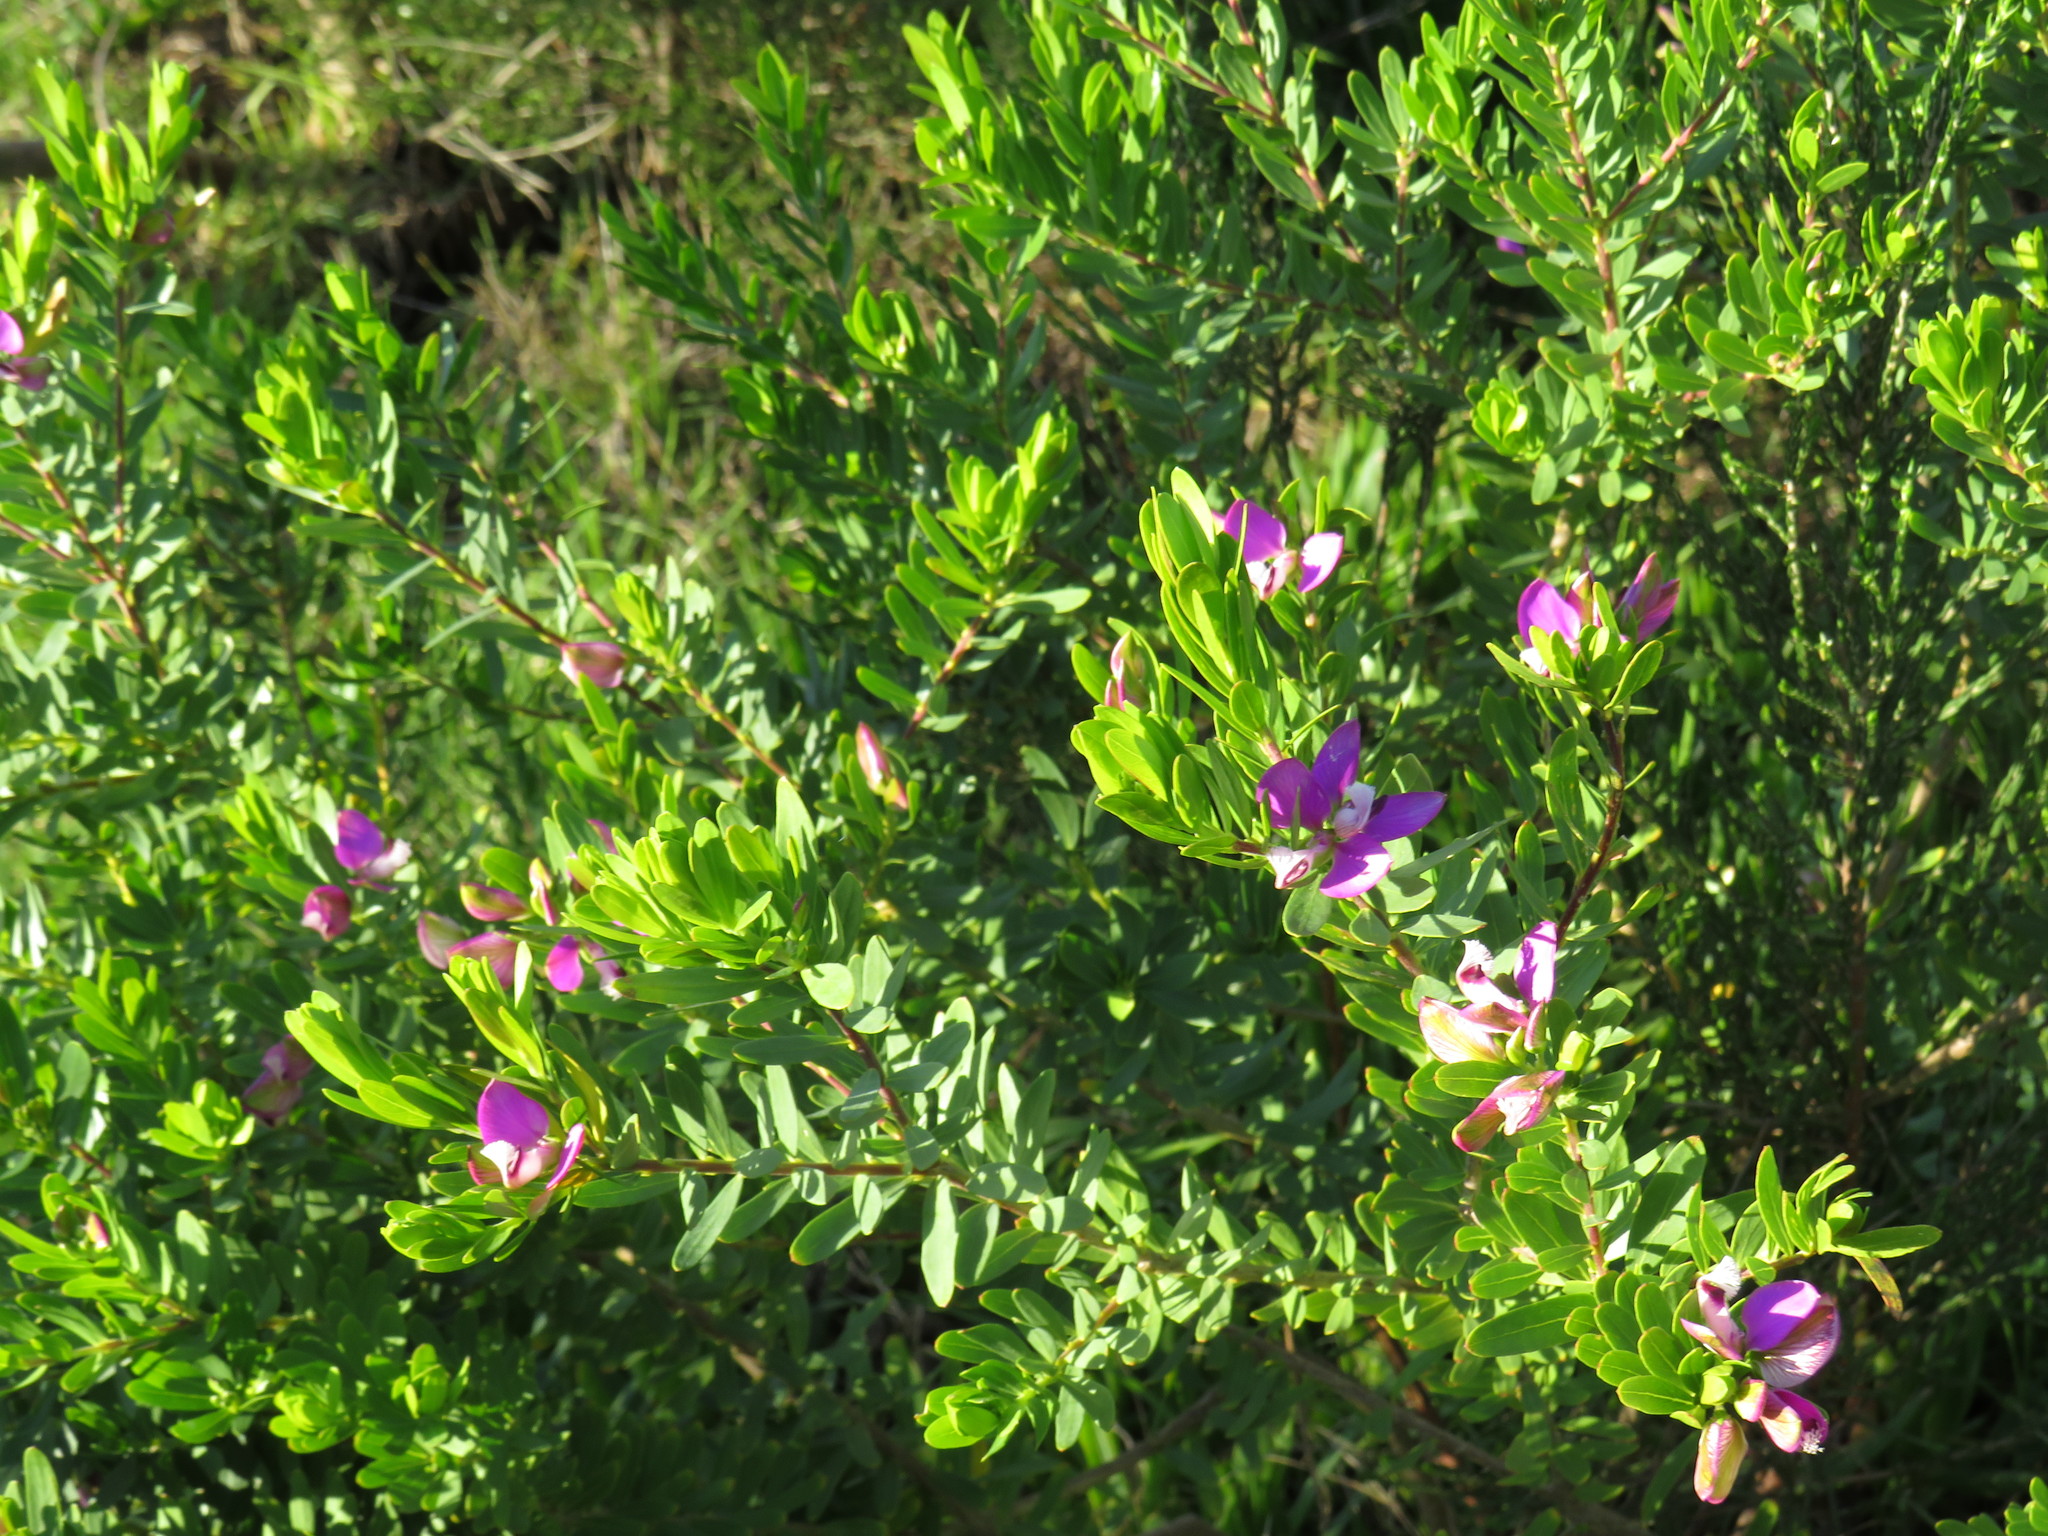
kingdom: Plantae
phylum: Tracheophyta
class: Magnoliopsida
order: Fabales
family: Polygalaceae
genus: Polygala
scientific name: Polygala myrtifolia
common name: Myrtle-leaf milkwort
